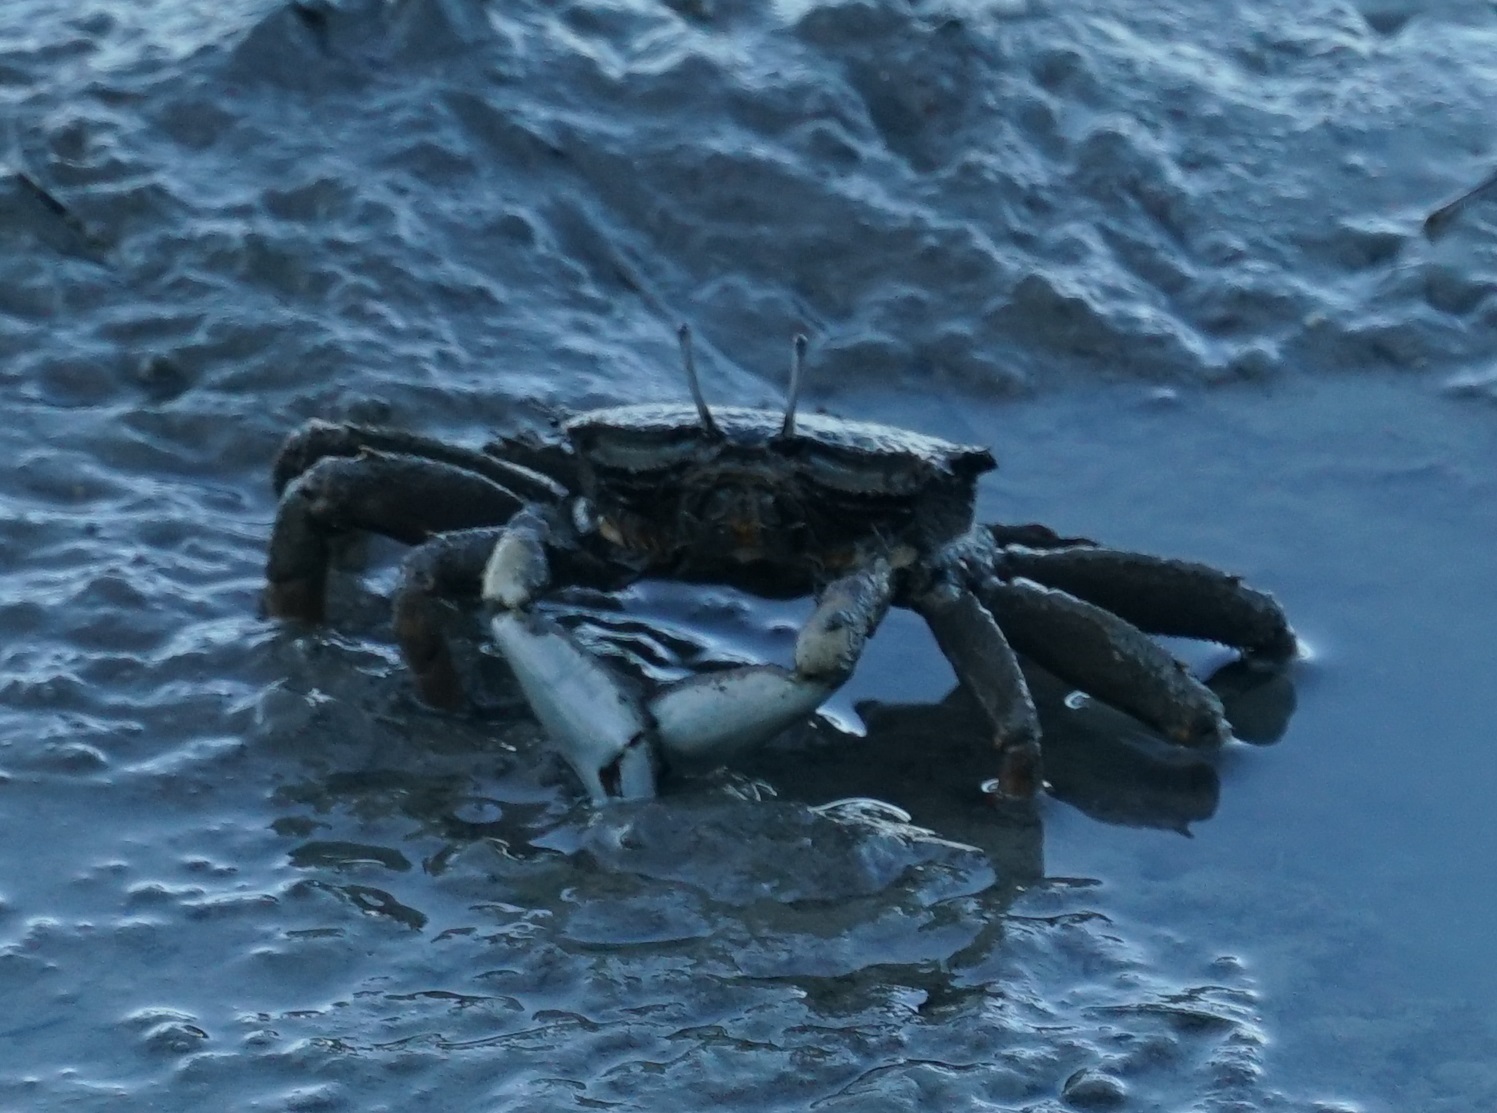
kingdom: Animalia
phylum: Arthropoda
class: Malacostraca
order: Decapoda
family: Macrophthalmidae
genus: Venitus
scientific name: Venitus latreillei
